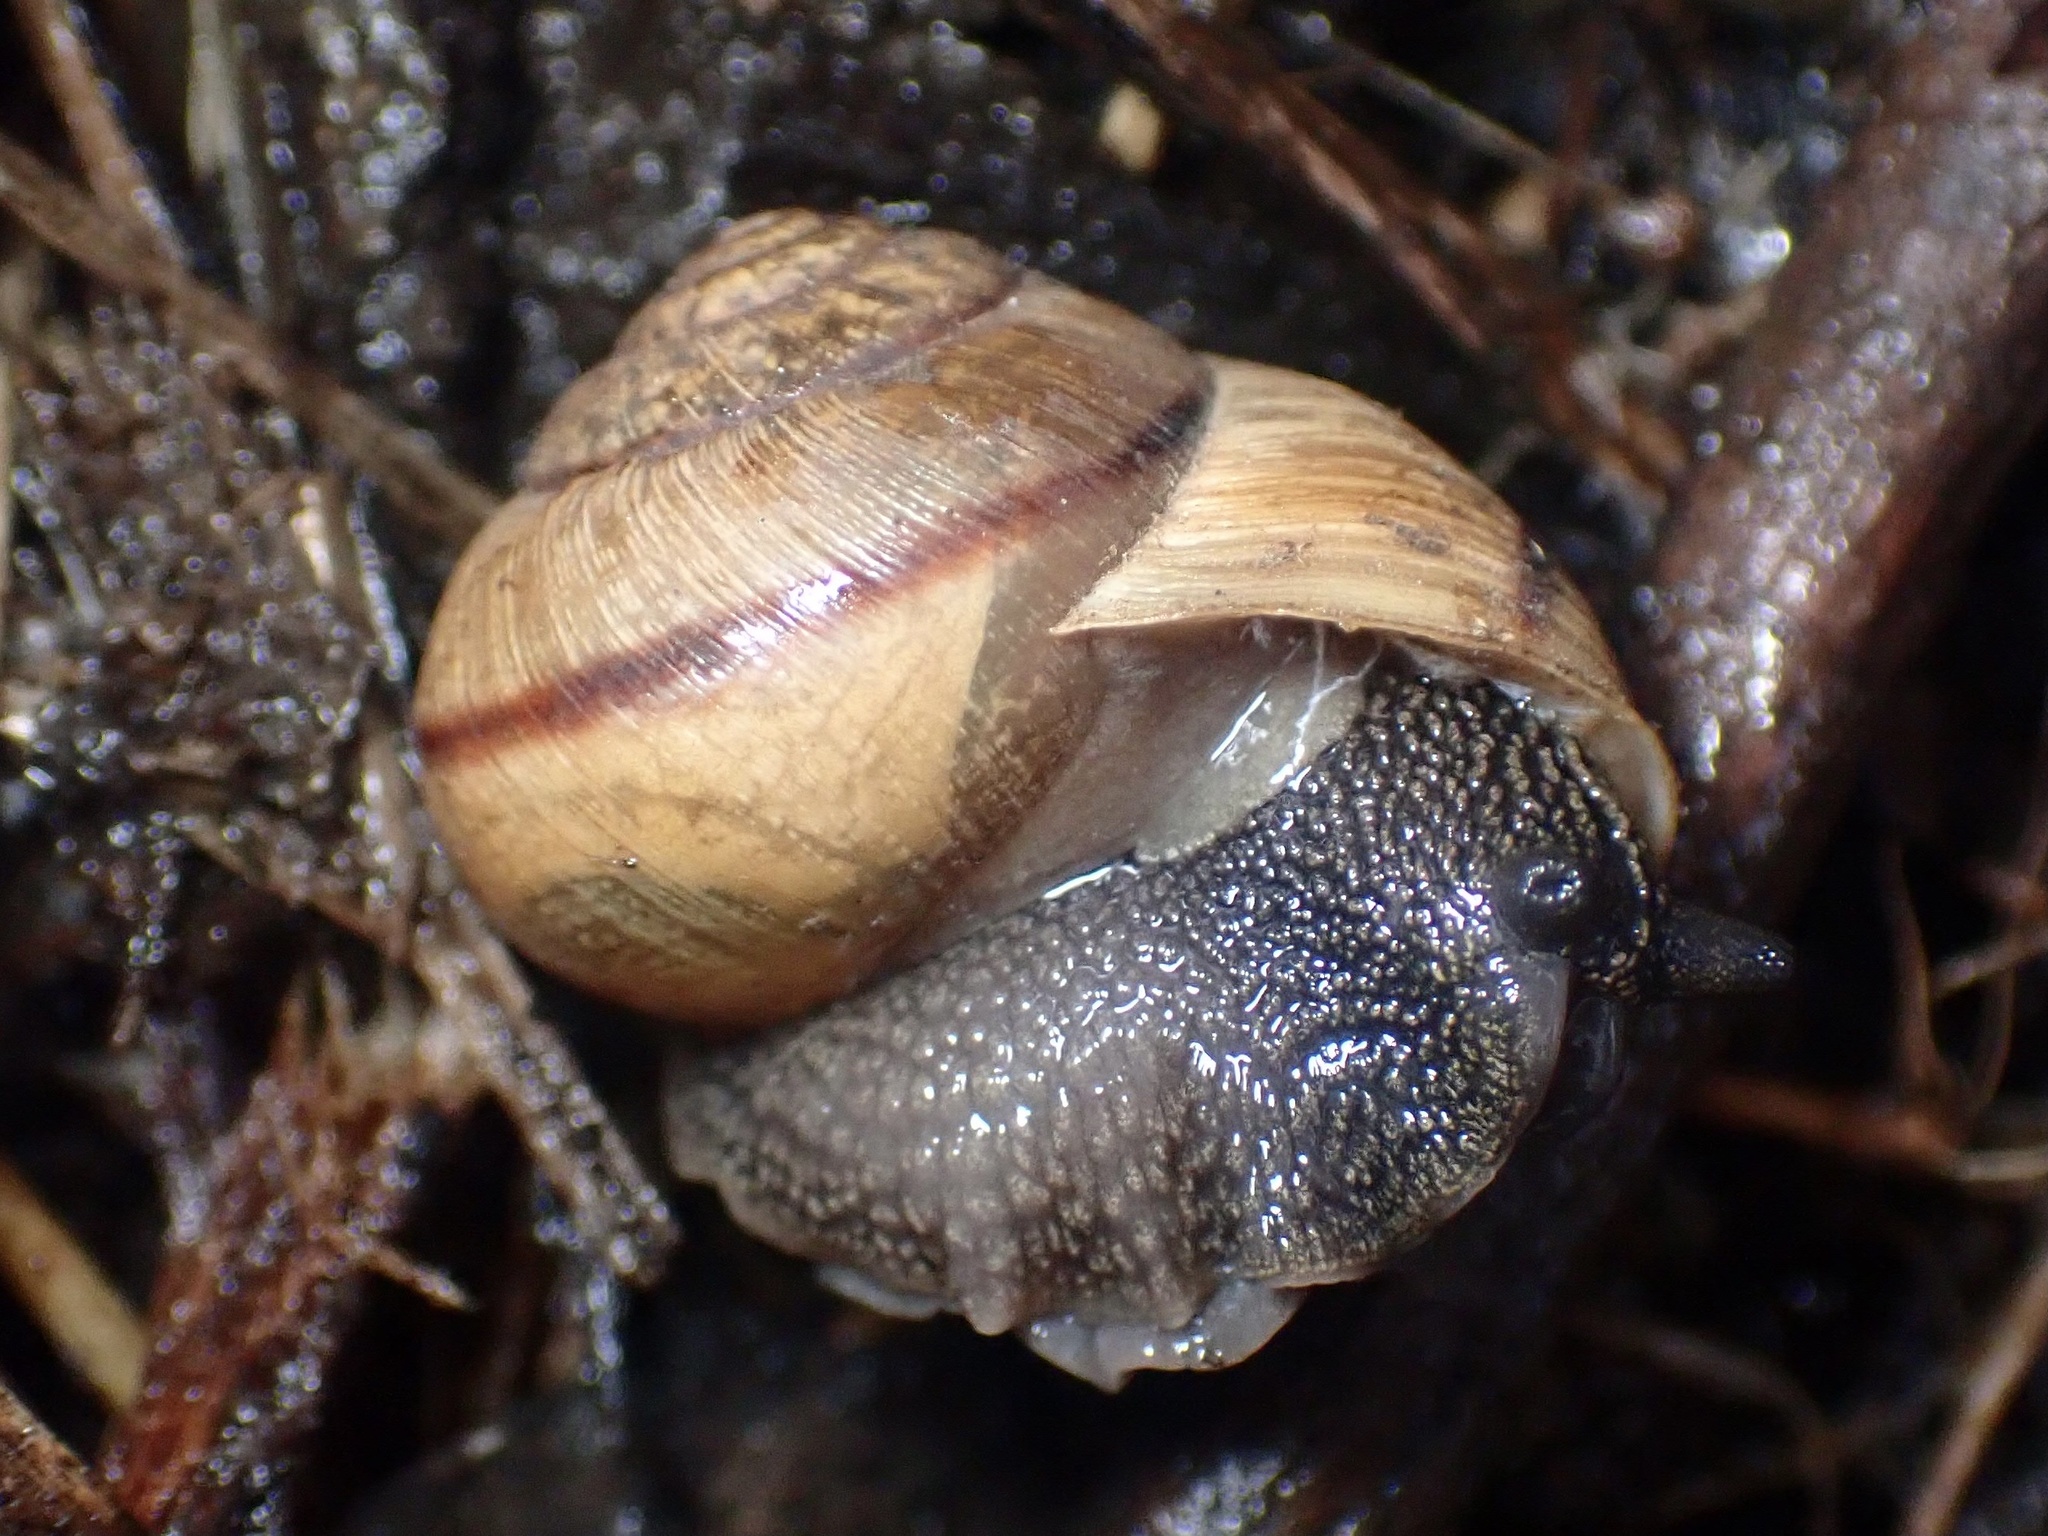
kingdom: Animalia
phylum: Mollusca
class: Gastropoda
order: Stylommatophora
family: Xanthonychidae
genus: Helminthoglypta
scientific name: Helminthoglypta nickliniana
